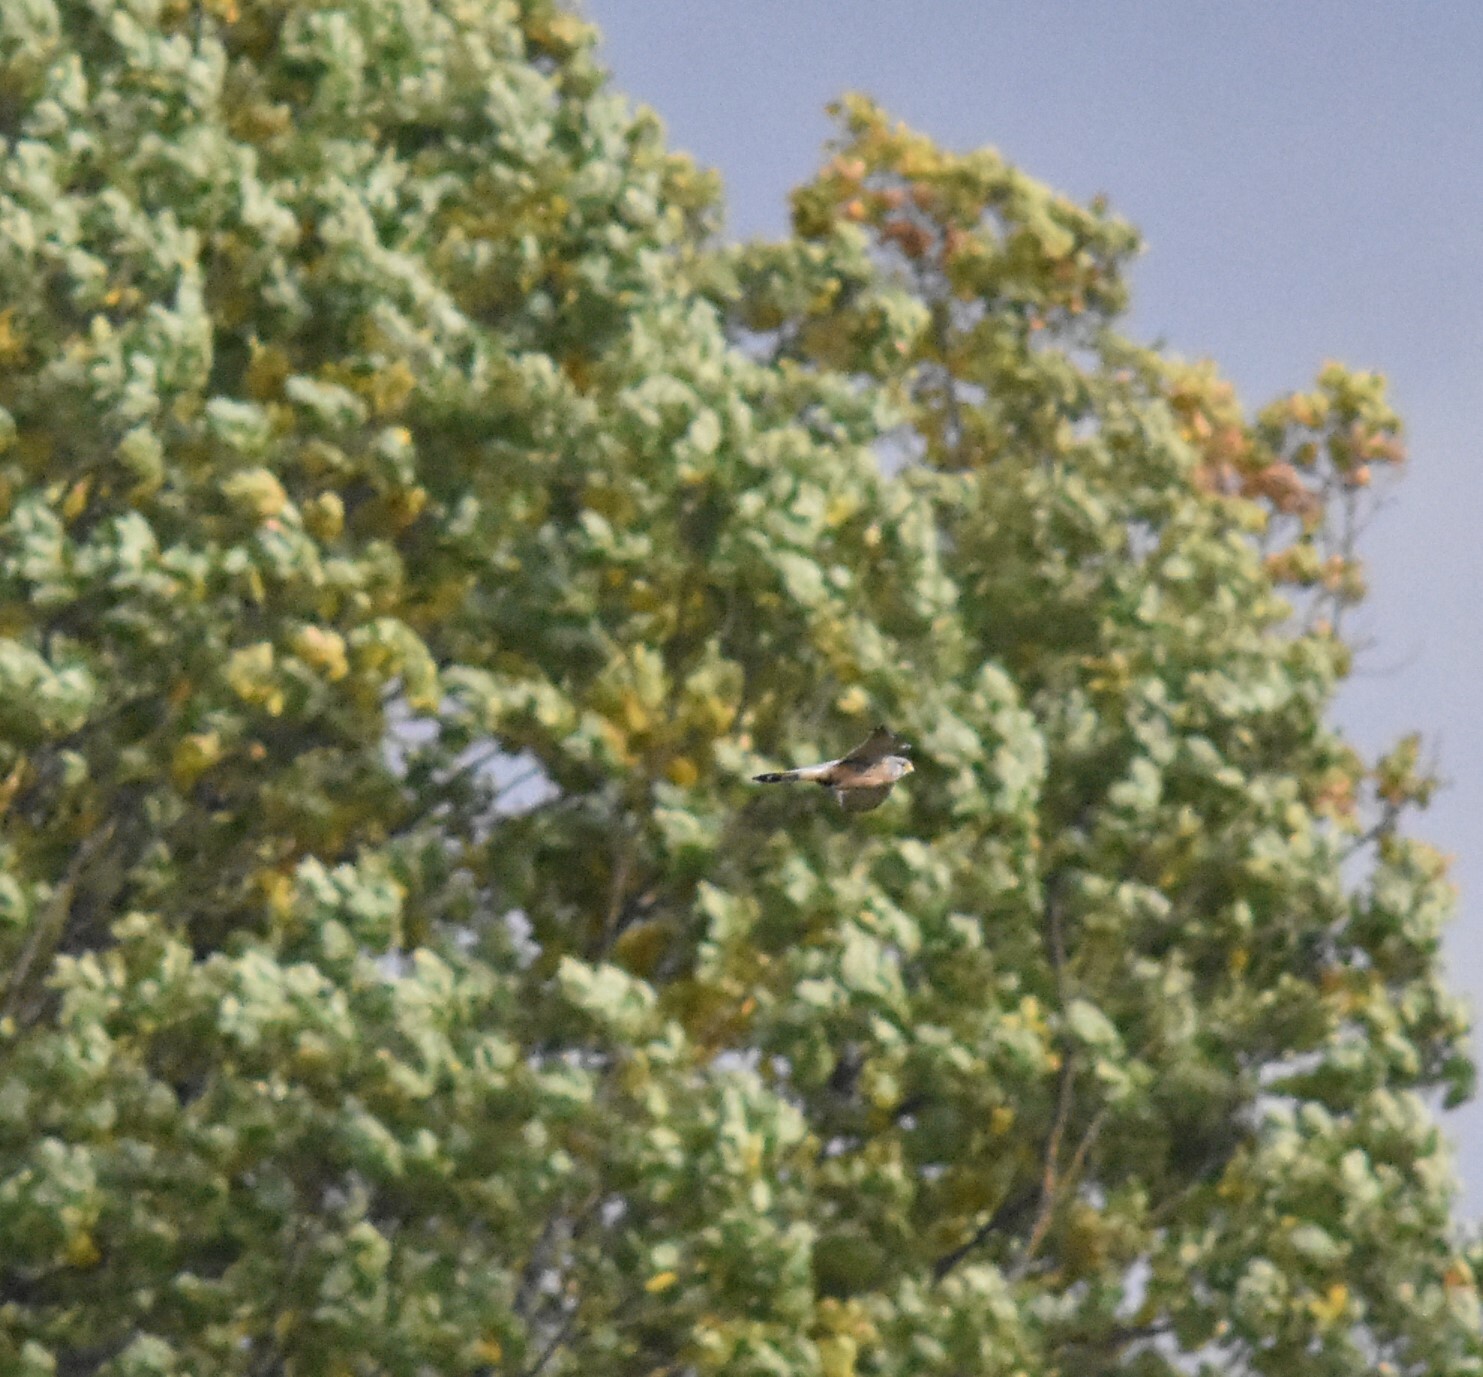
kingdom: Animalia
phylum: Chordata
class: Aves
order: Falconiformes
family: Falconidae
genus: Falco
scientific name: Falco tinnunculus
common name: Common kestrel
